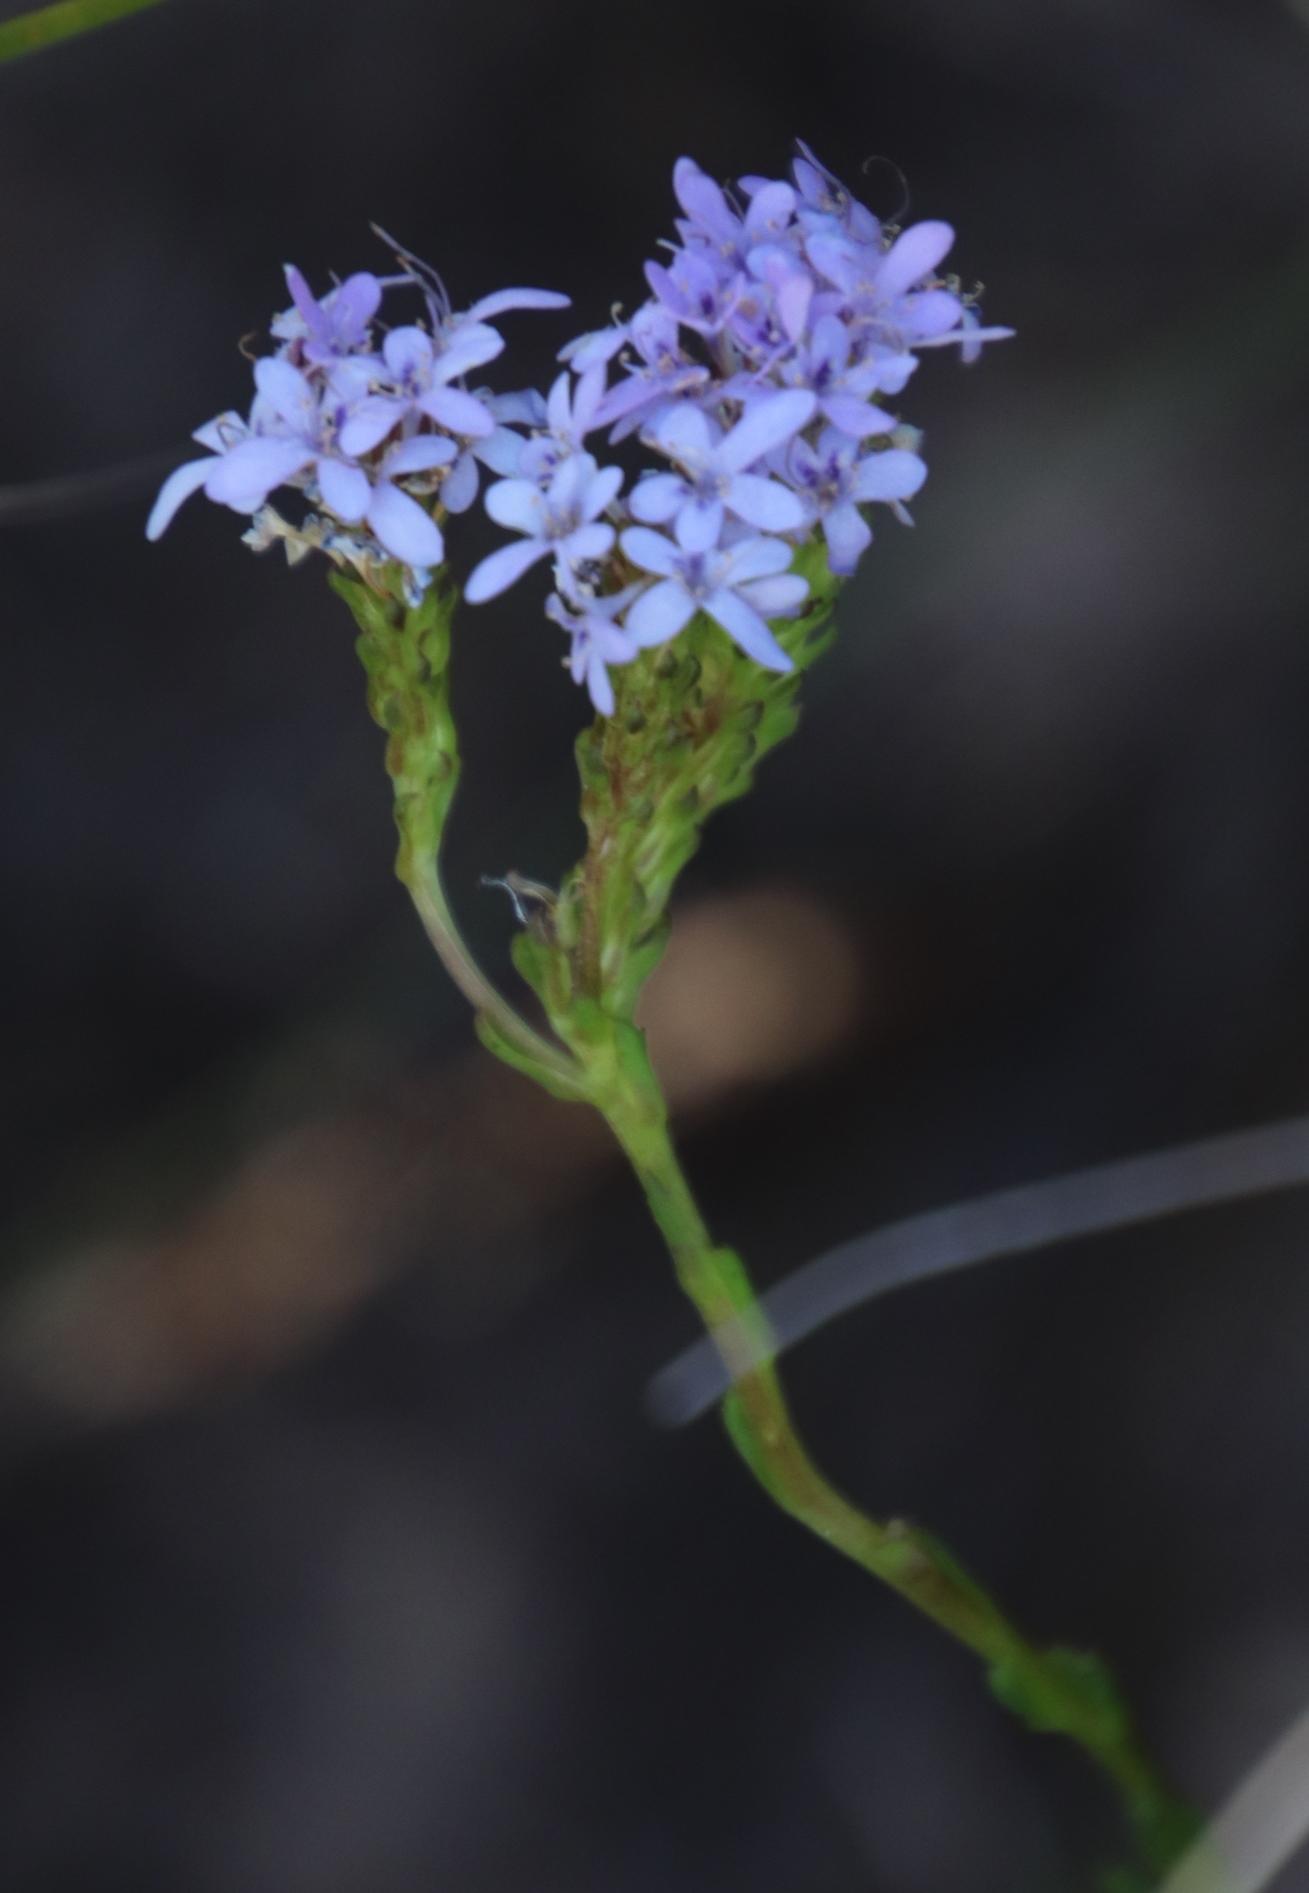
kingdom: Plantae
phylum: Tracheophyta
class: Magnoliopsida
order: Lamiales
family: Scrophulariaceae
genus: Pseudoselago
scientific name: Pseudoselago spuria
